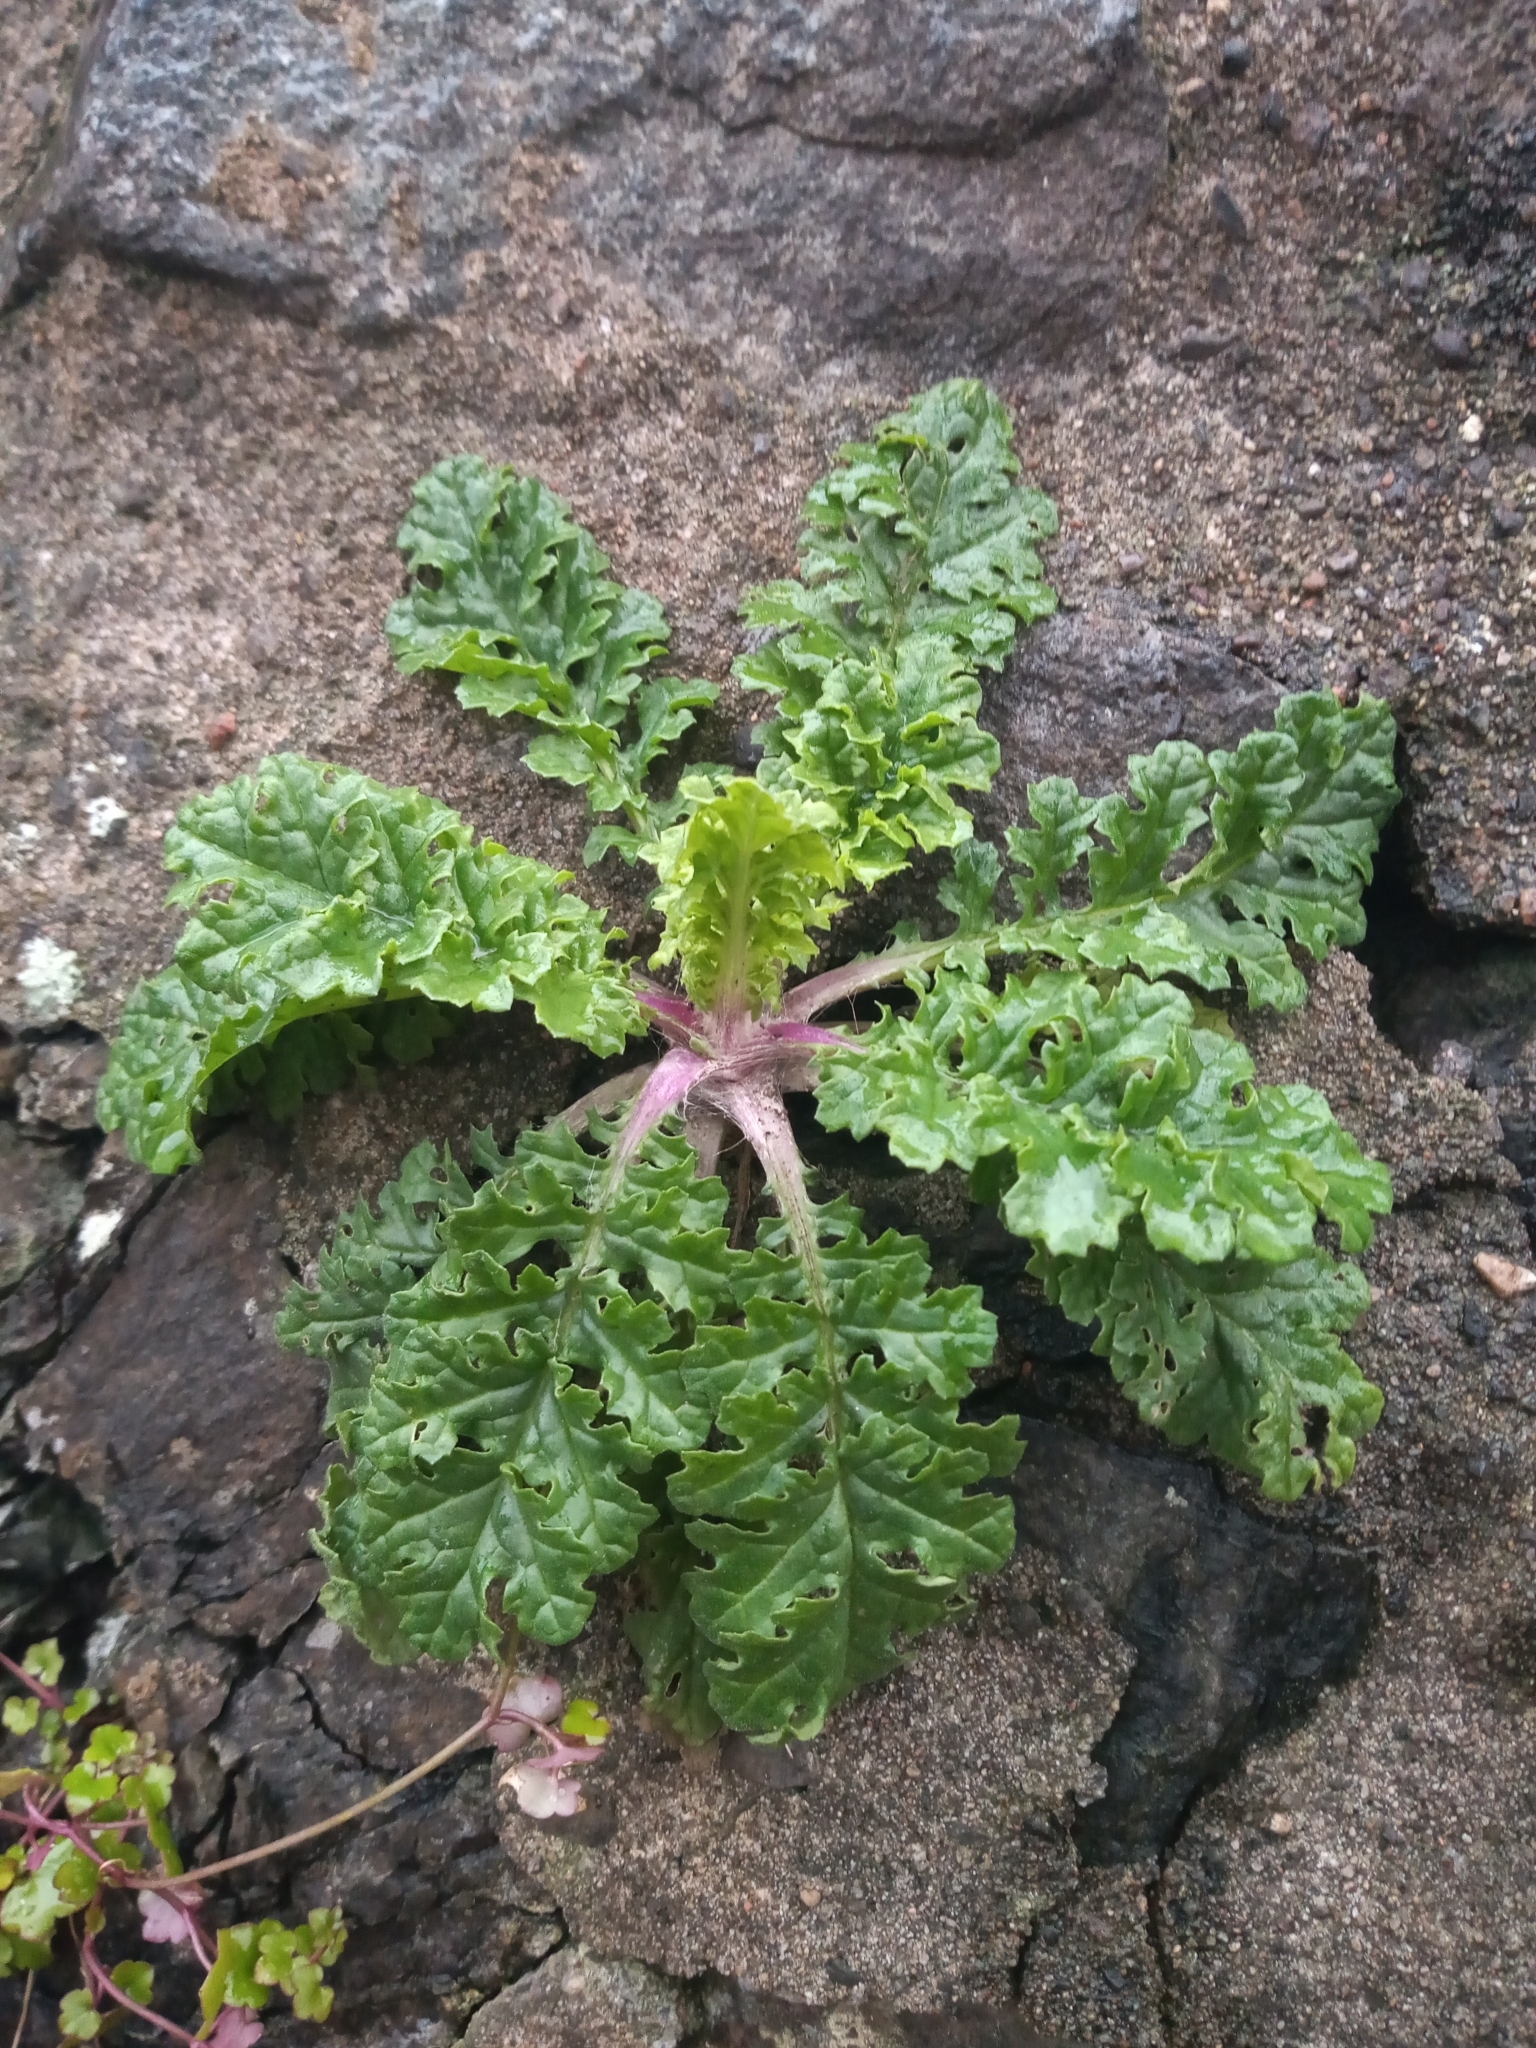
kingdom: Plantae
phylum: Tracheophyta
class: Magnoliopsida
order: Asterales
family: Asteraceae
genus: Jacobaea
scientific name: Jacobaea vulgaris
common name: Stinking willie
